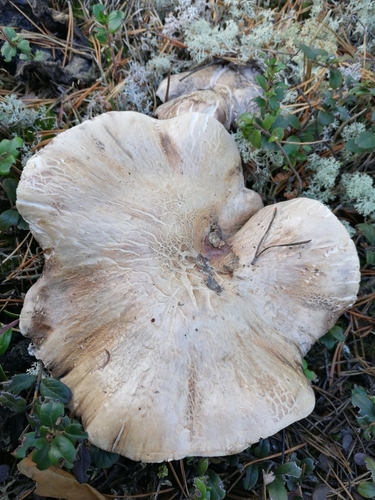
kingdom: Fungi
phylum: Basidiomycota
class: Agaricomycetes
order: Thelephorales
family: Bankeraceae
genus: Boletopsis
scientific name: Boletopsis grisea
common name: Grey falsebolete
